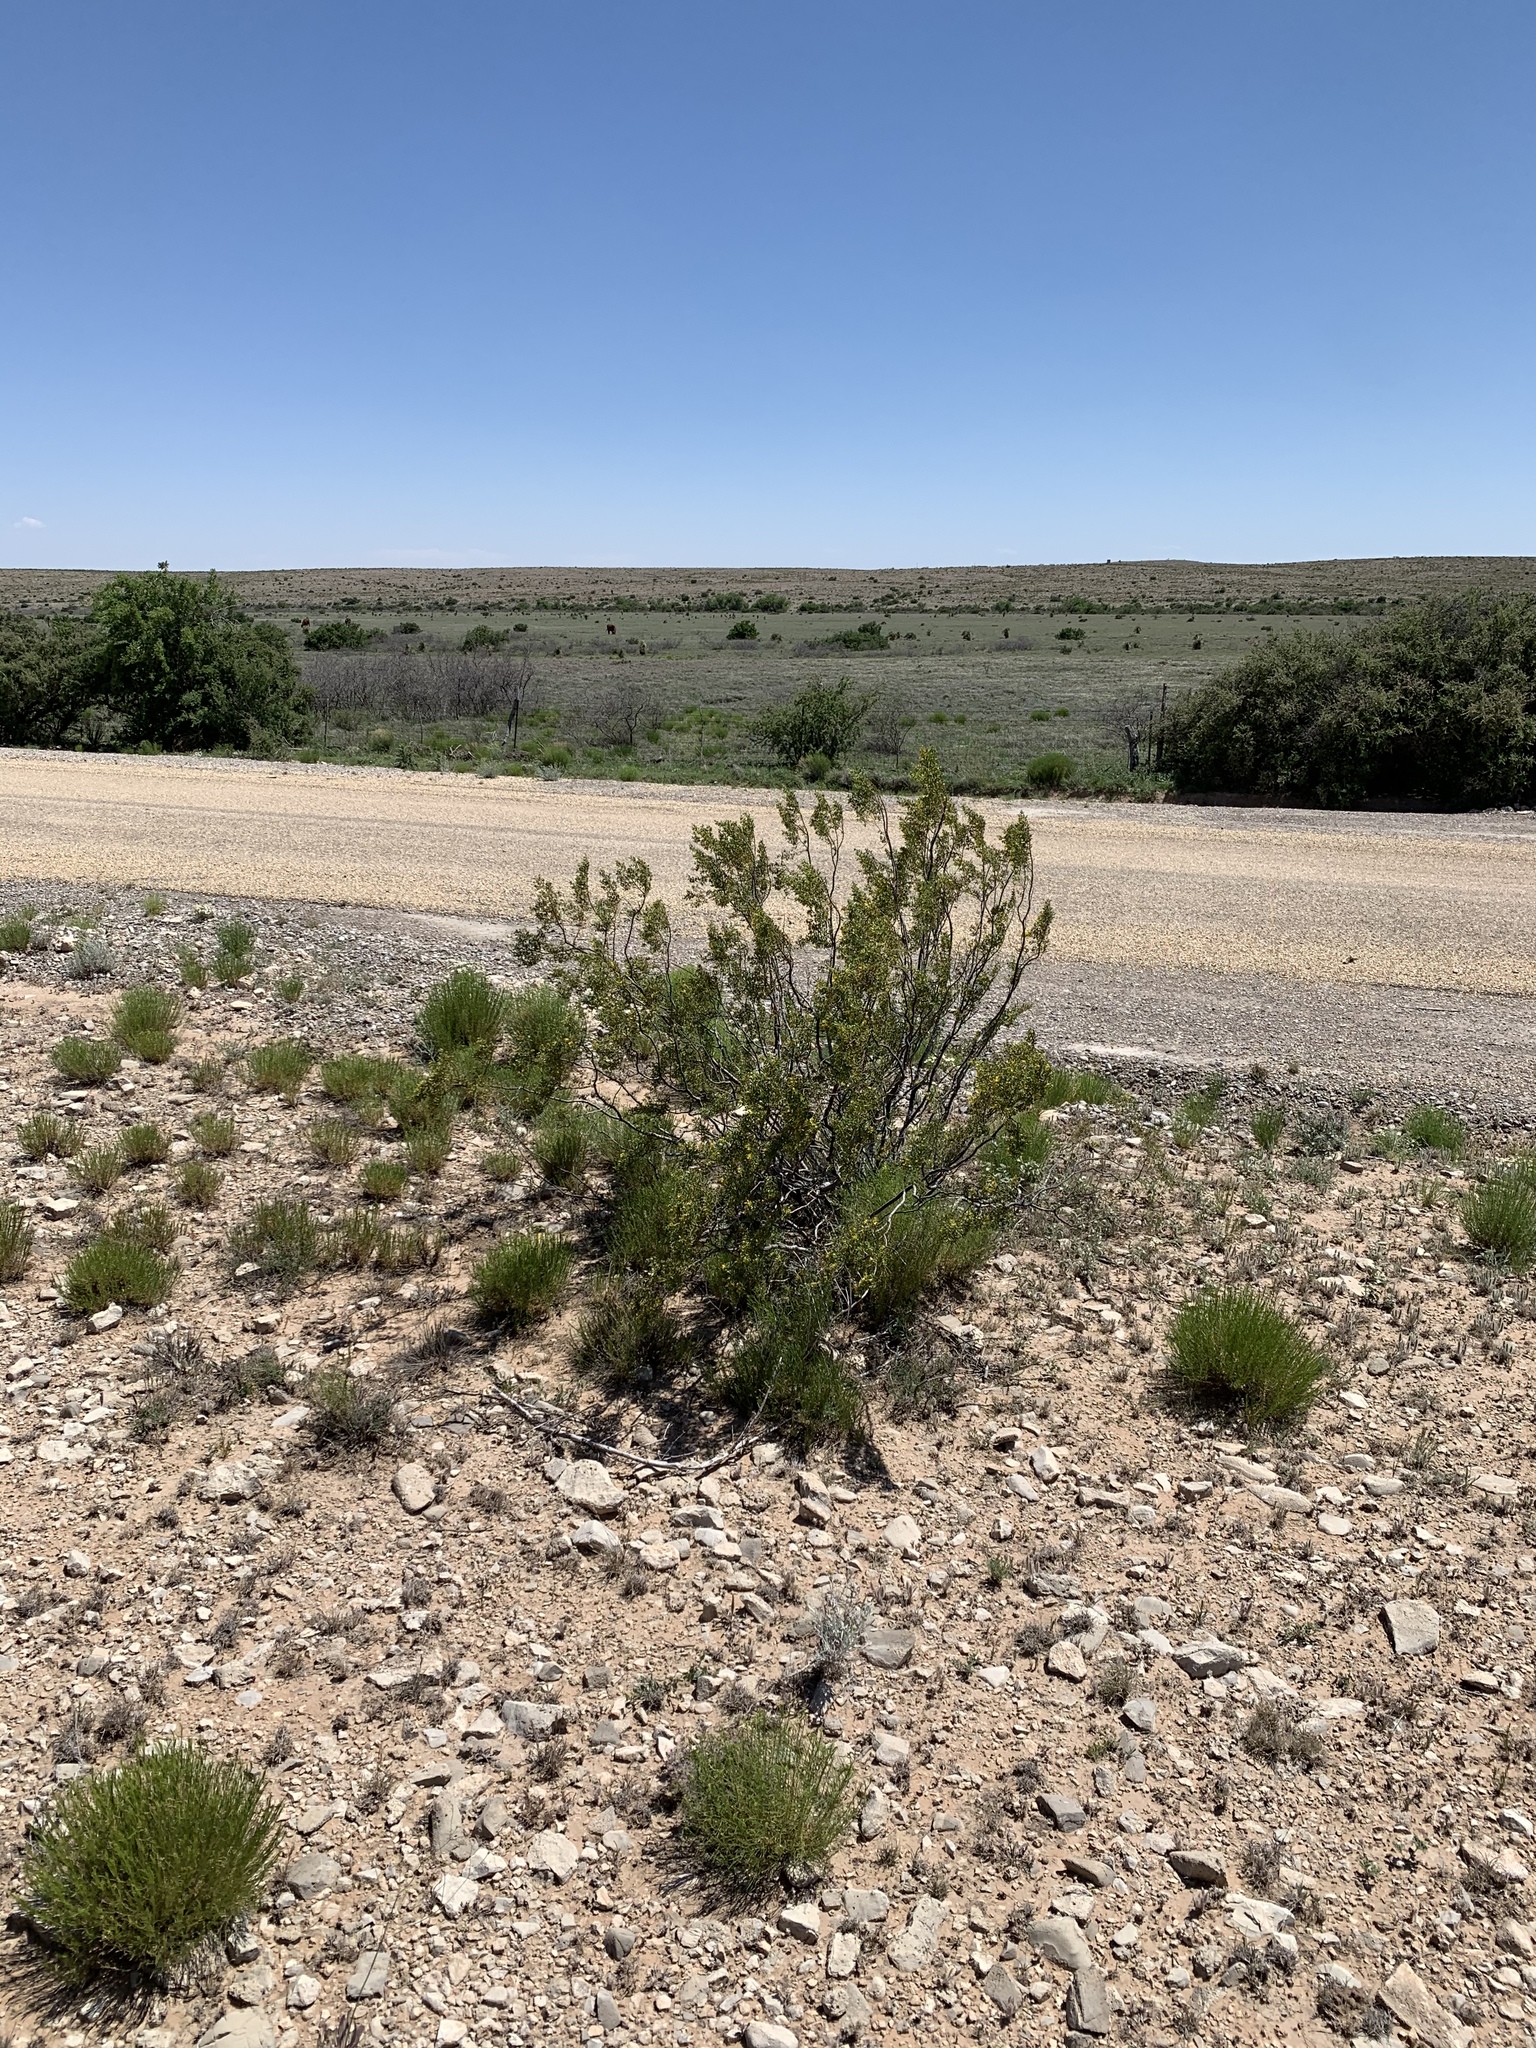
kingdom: Plantae
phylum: Tracheophyta
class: Magnoliopsida
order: Zygophyllales
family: Zygophyllaceae
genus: Larrea
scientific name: Larrea tridentata
